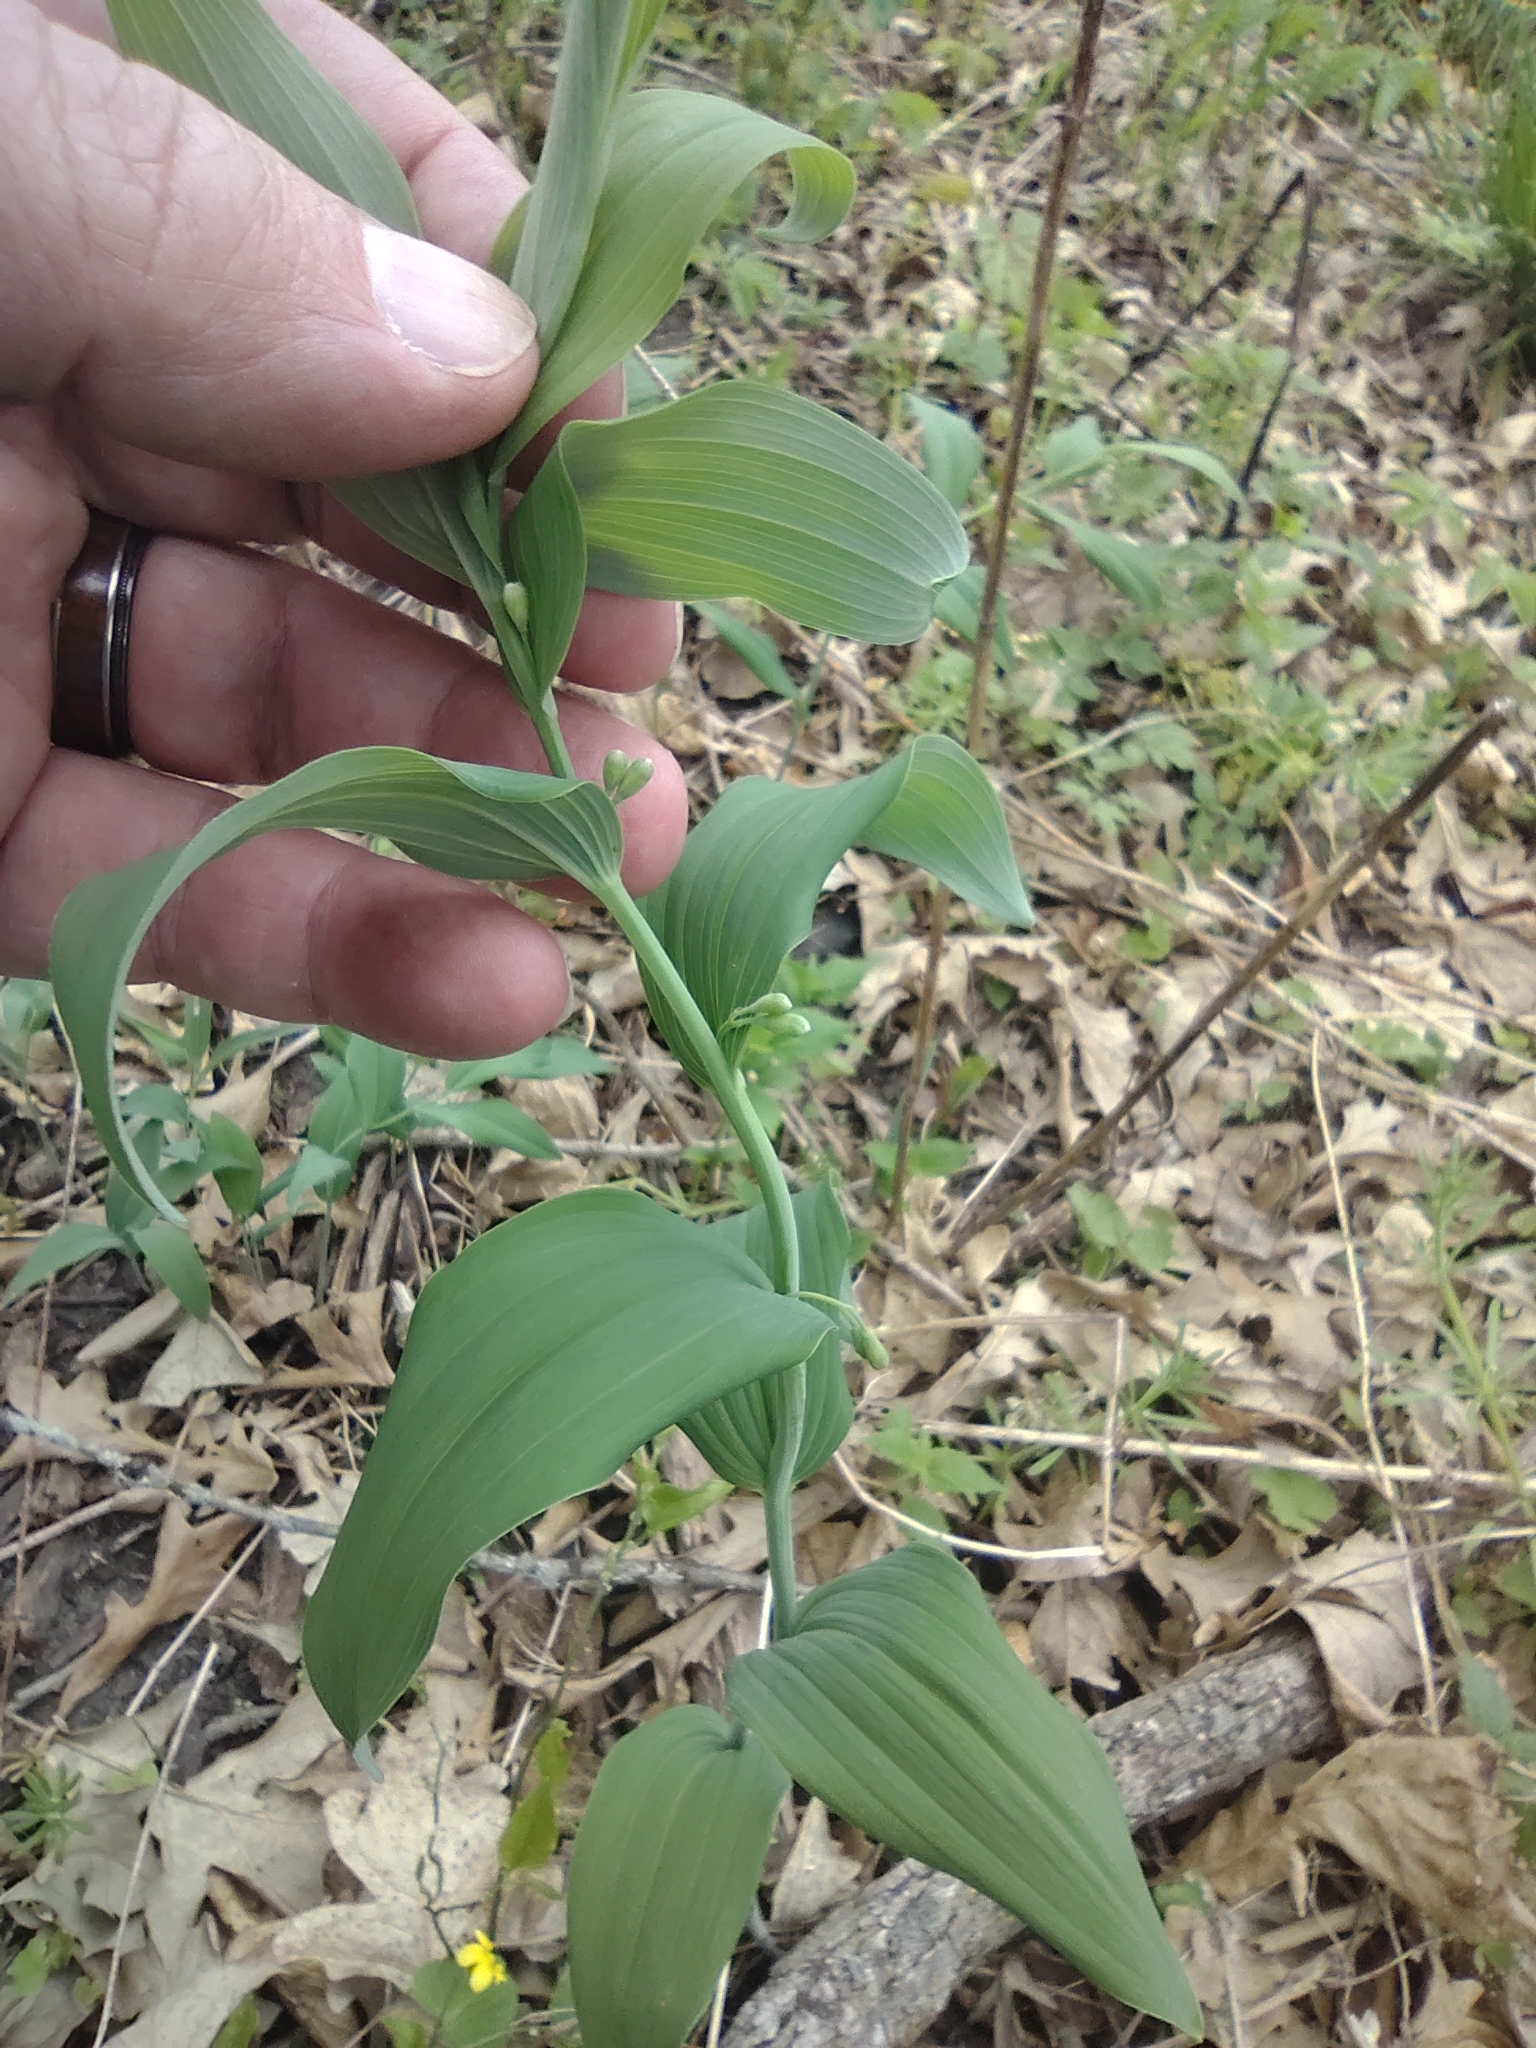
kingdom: Plantae
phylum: Tracheophyta
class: Liliopsida
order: Asparagales
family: Asparagaceae
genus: Polygonatum
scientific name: Polygonatum biflorum
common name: American solomon's-seal
